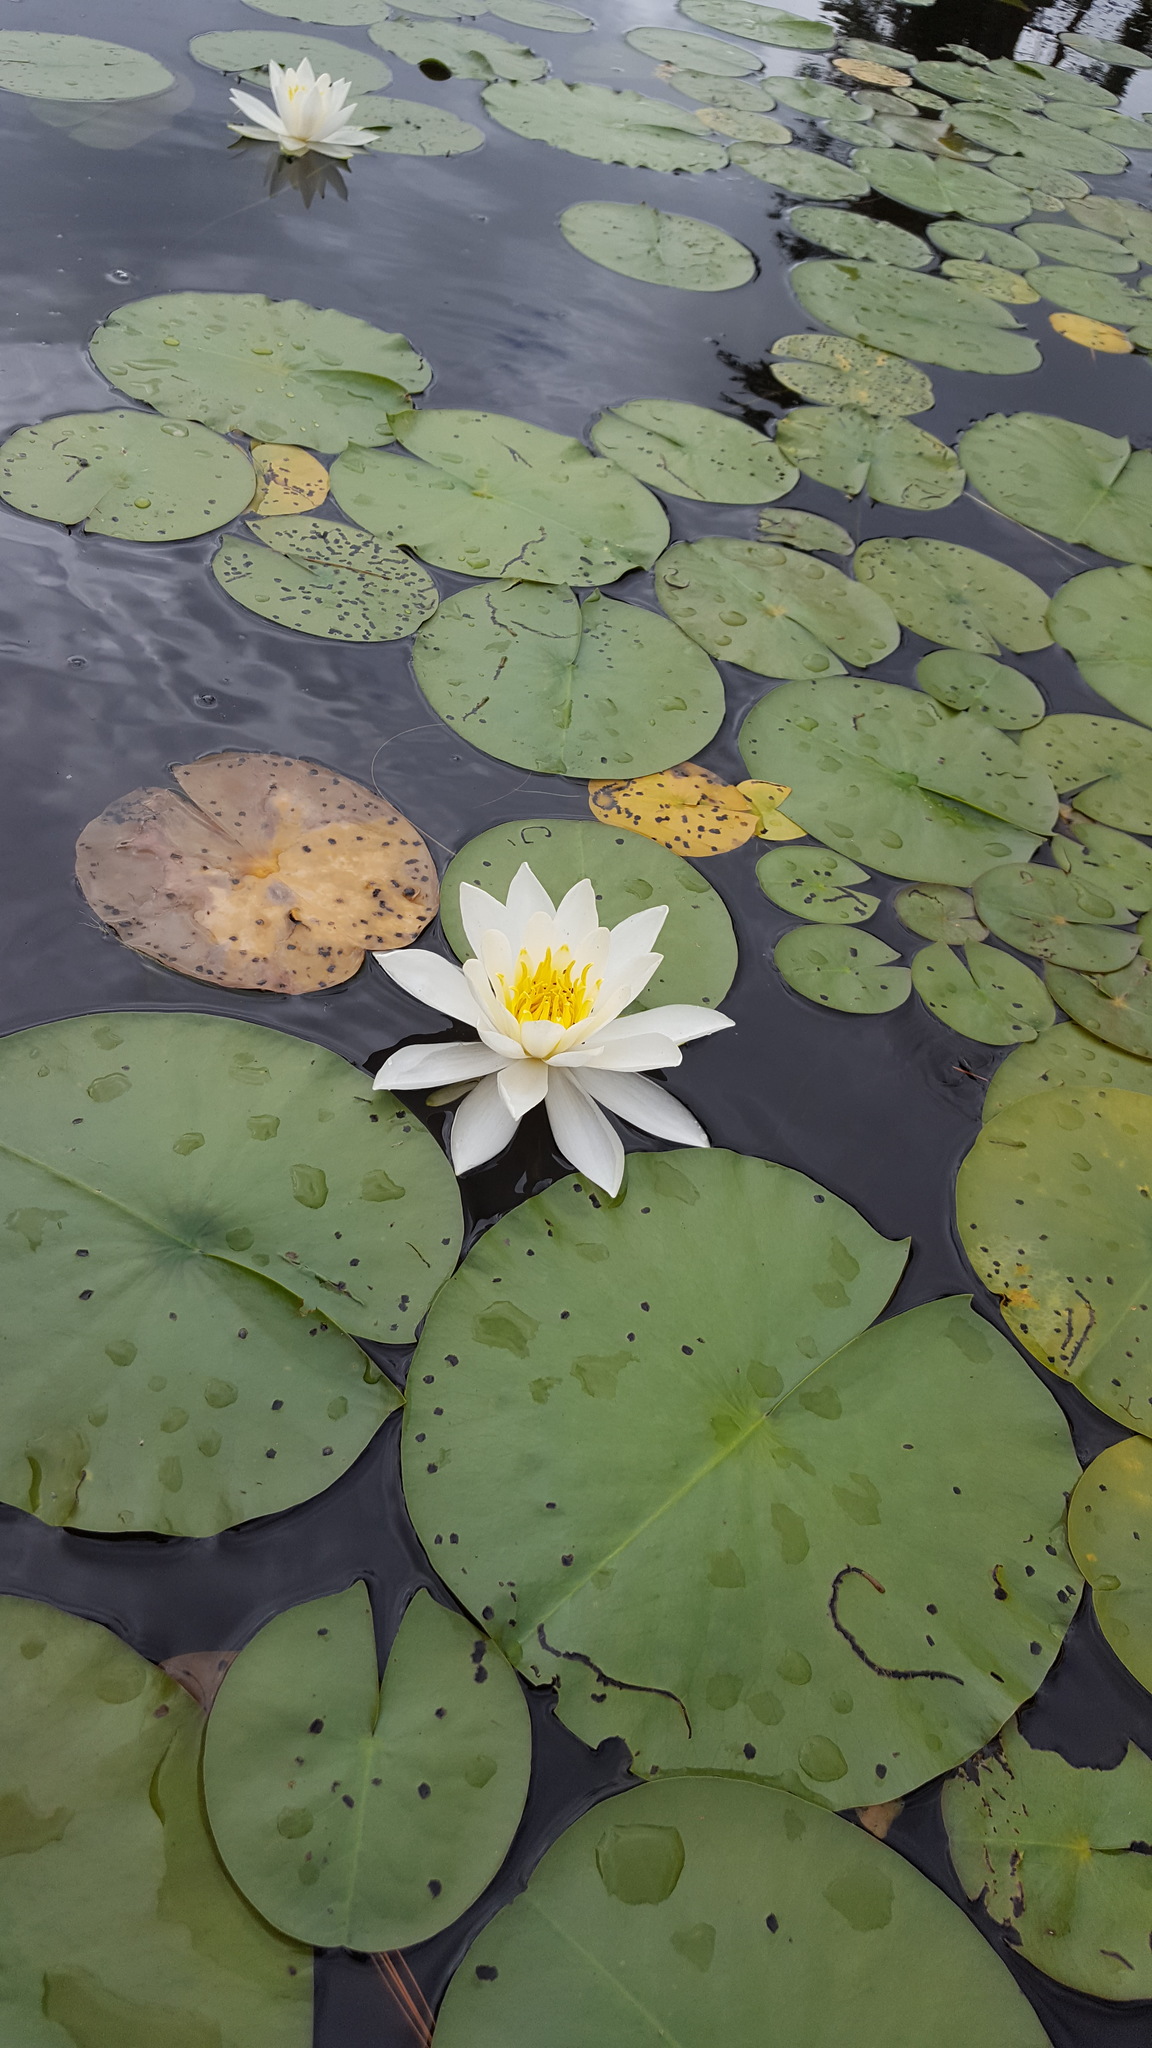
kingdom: Plantae
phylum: Tracheophyta
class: Magnoliopsida
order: Nymphaeales
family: Nymphaeaceae
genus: Nymphaea
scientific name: Nymphaea odorata
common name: Fragrant water-lily
